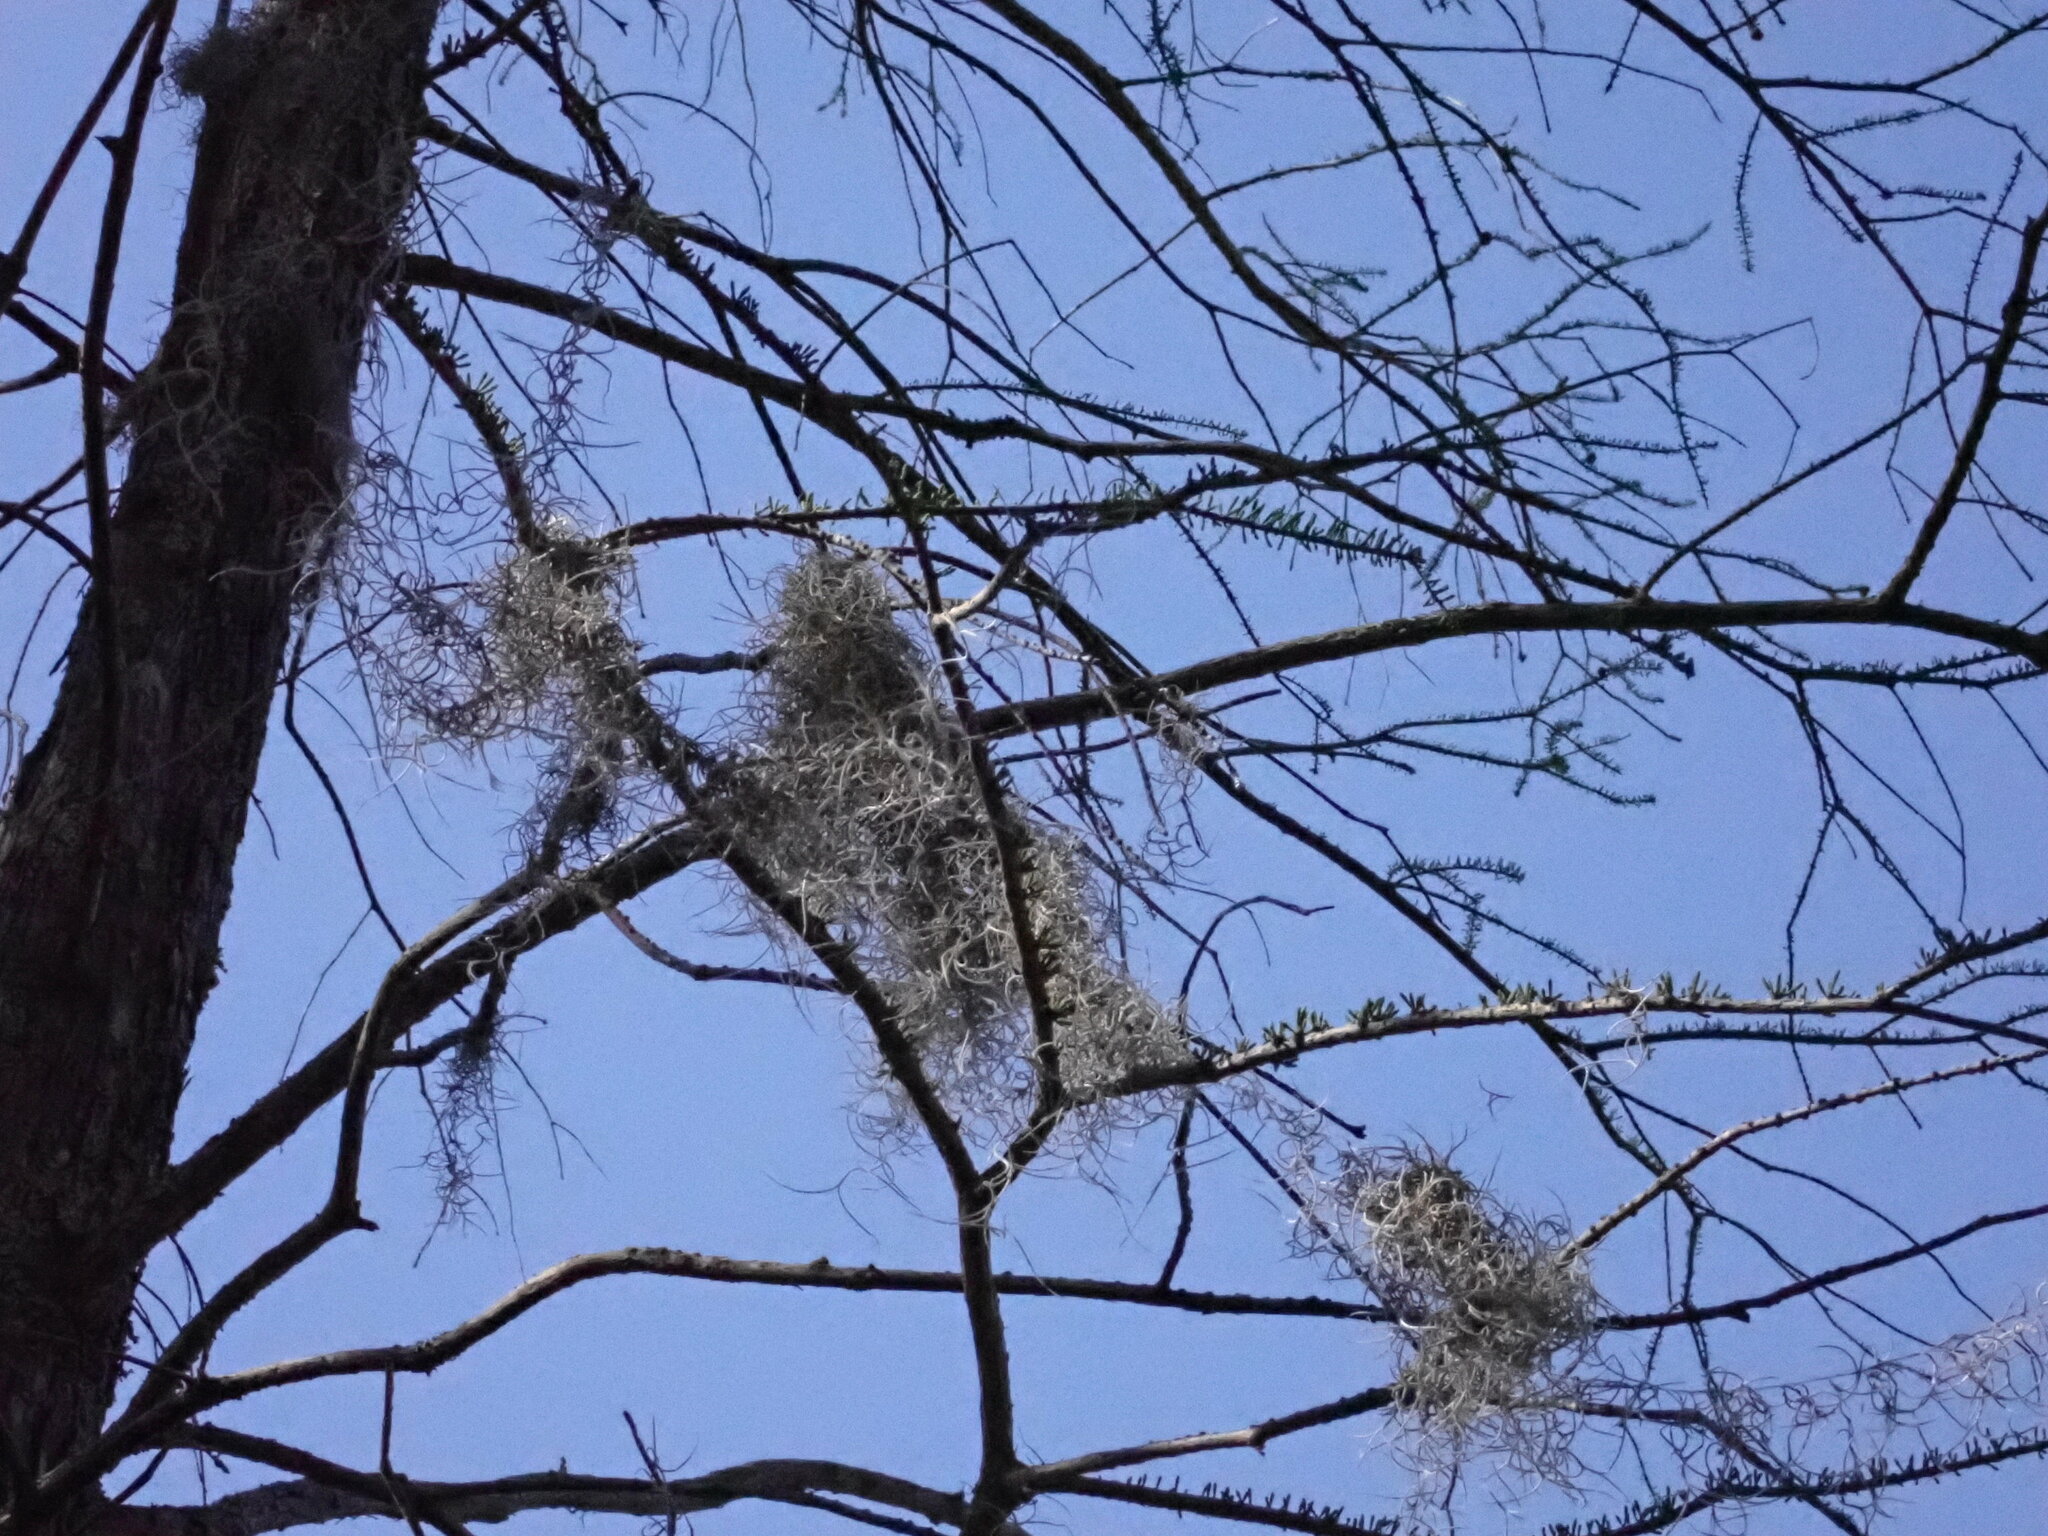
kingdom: Plantae
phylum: Tracheophyta
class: Liliopsida
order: Poales
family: Bromeliaceae
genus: Tillandsia
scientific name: Tillandsia usneoides
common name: Spanish moss
